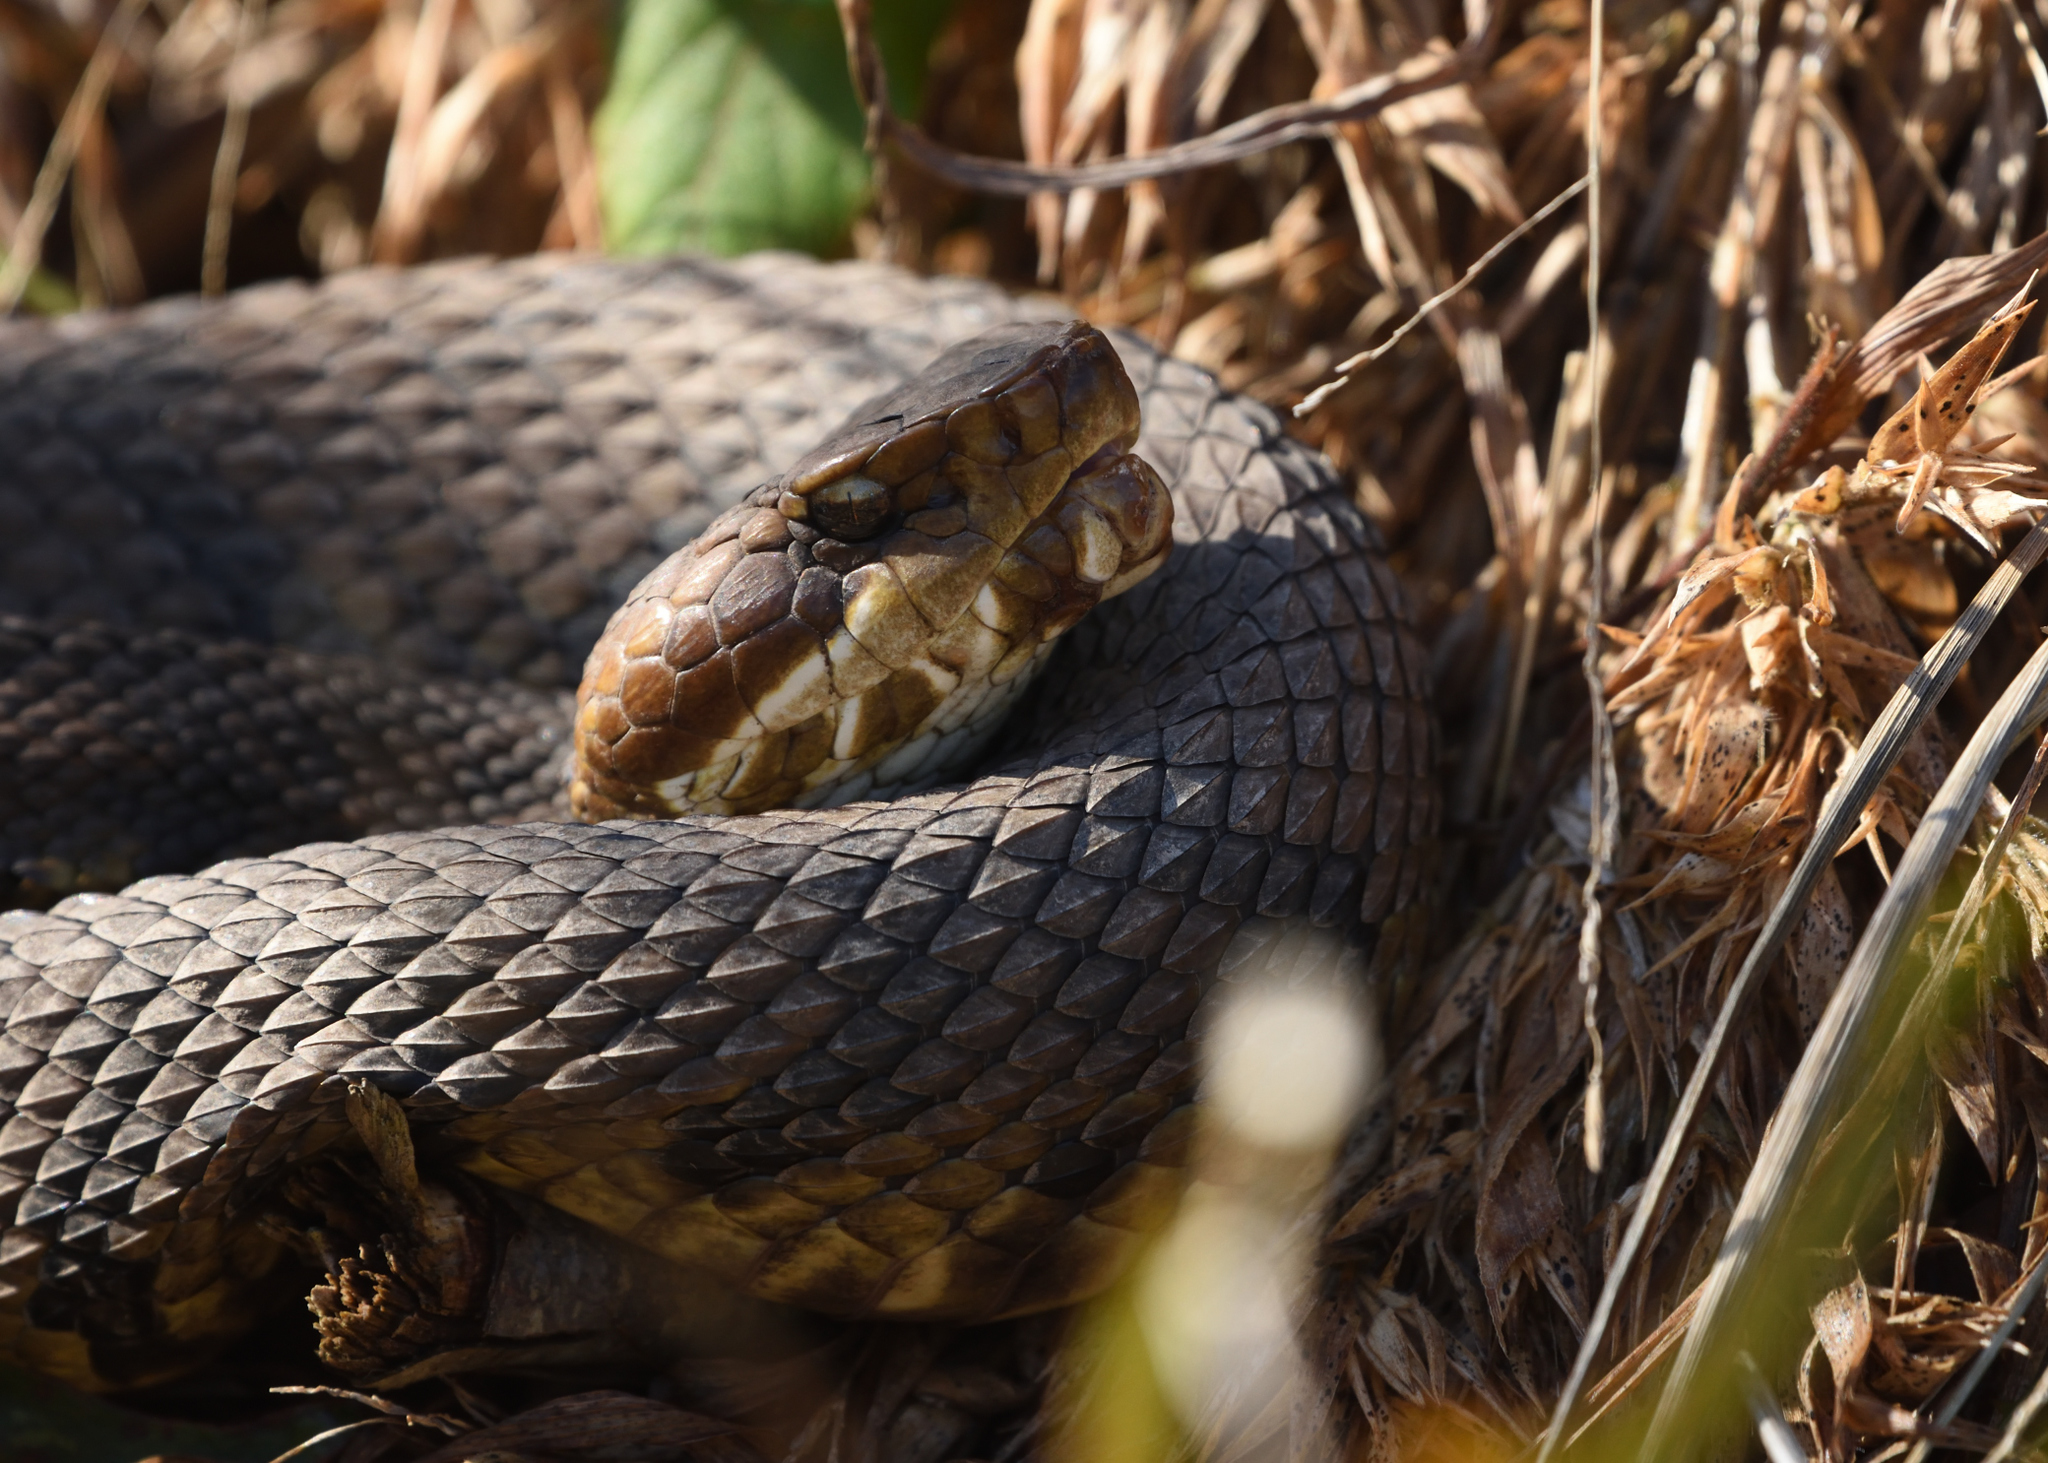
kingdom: Animalia
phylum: Chordata
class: Squamata
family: Viperidae
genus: Agkistrodon
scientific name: Agkistrodon piscivorus
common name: Cottonmouth
